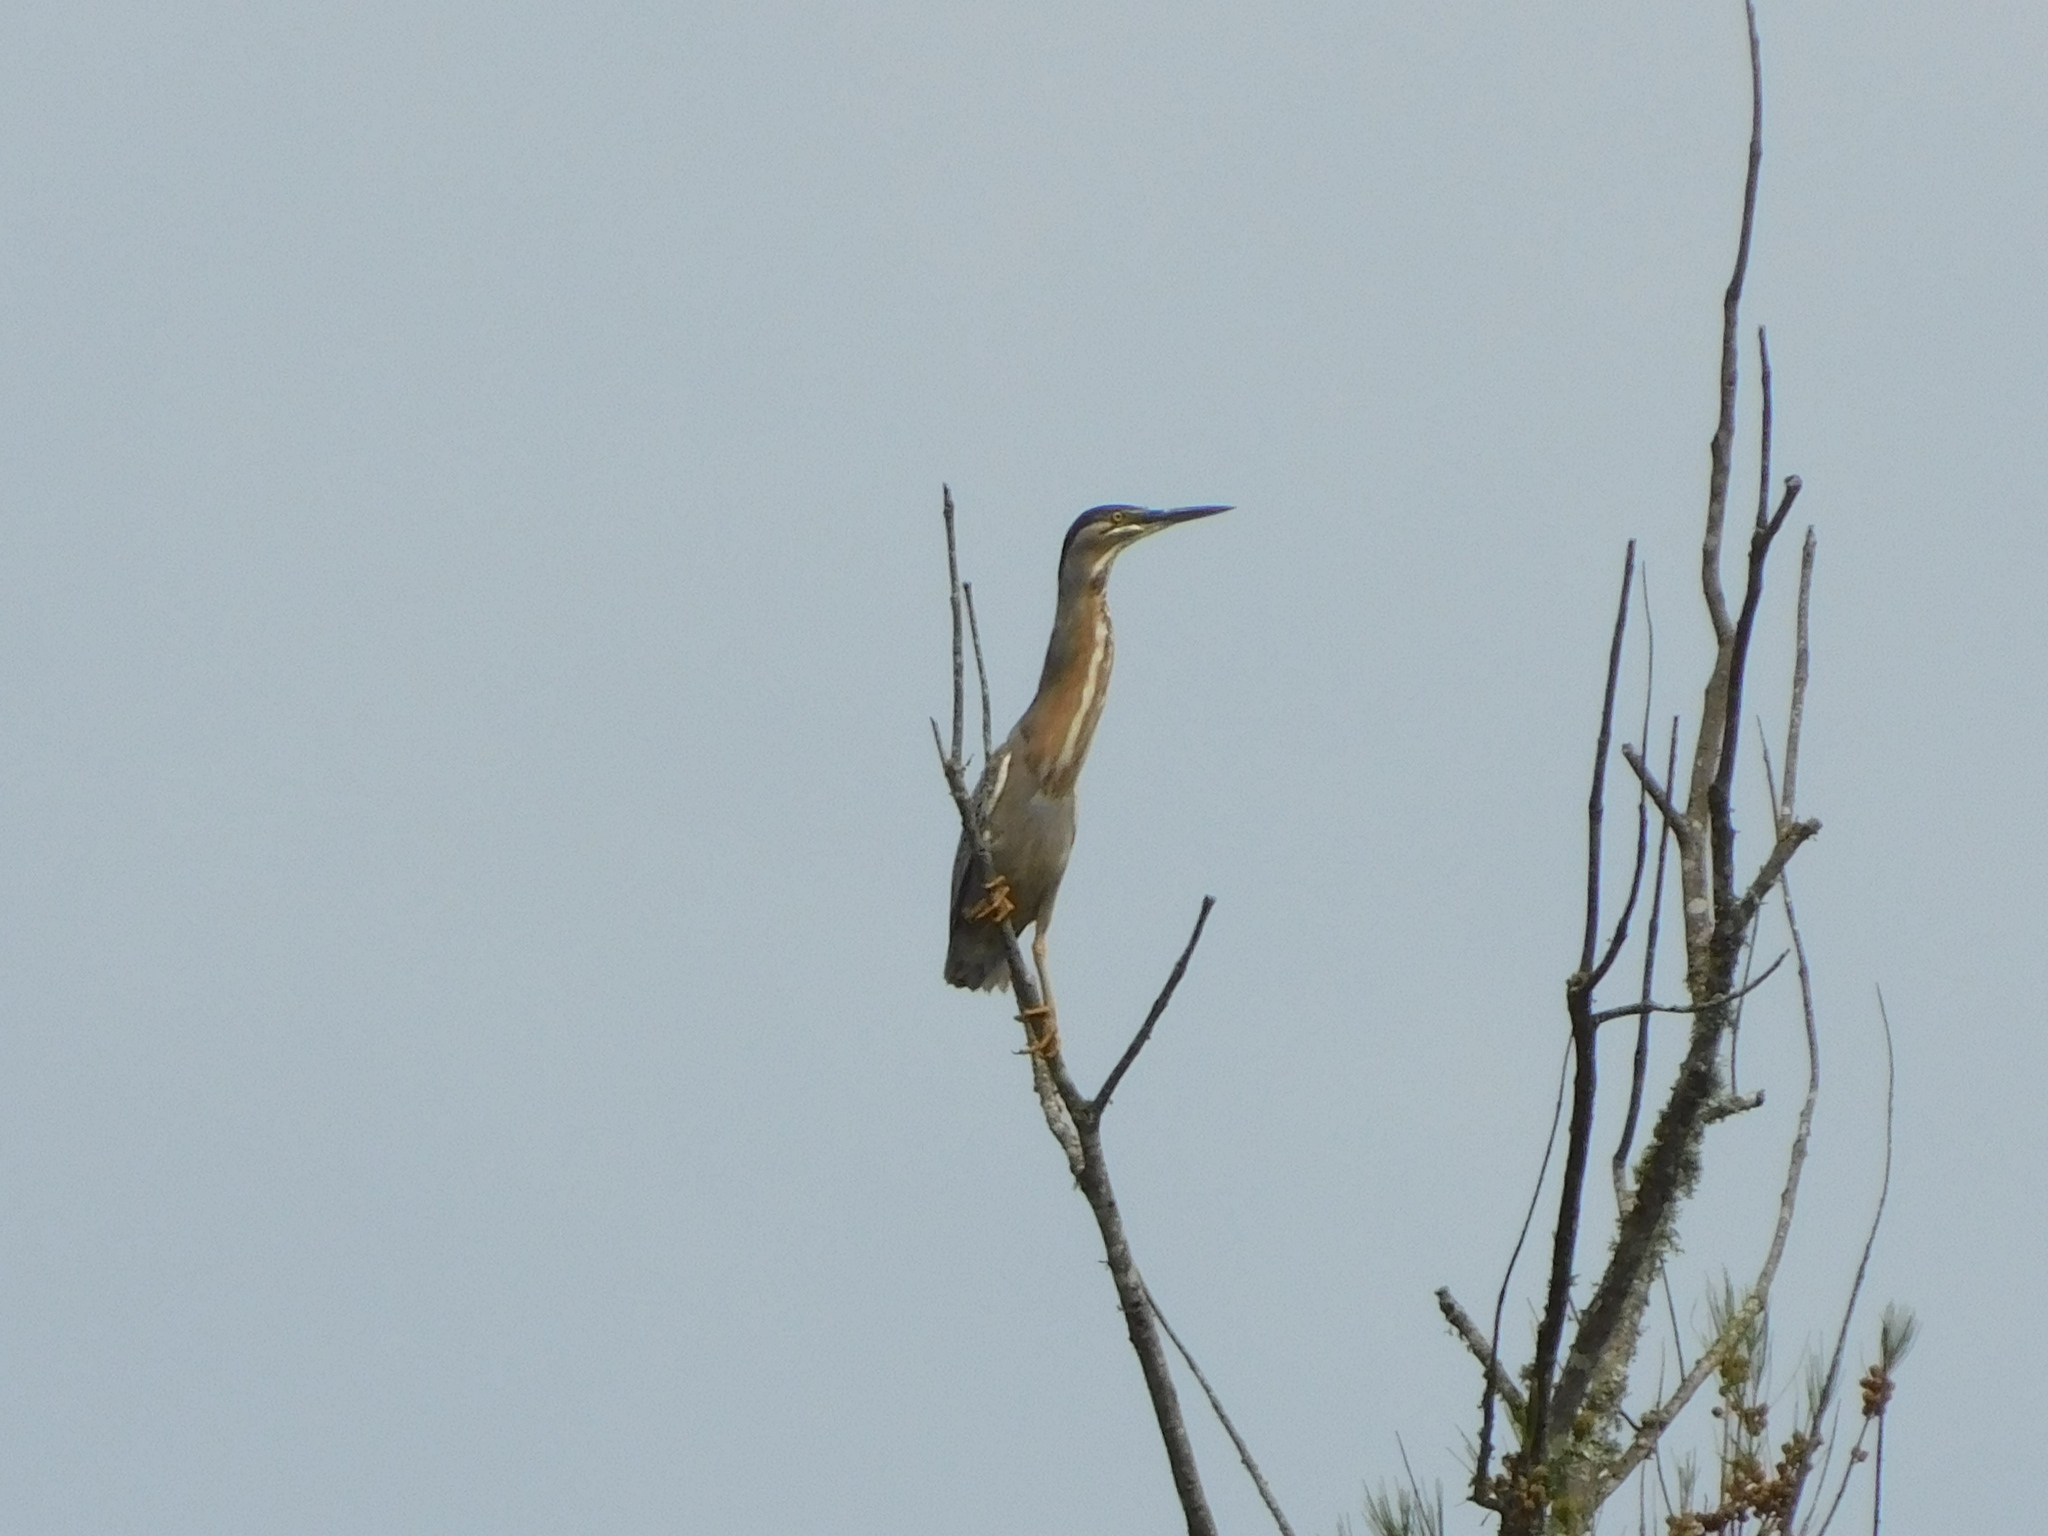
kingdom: Animalia
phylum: Chordata
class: Aves
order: Pelecaniformes
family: Ardeidae
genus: Butorides
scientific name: Butorides striata
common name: Striated heron
